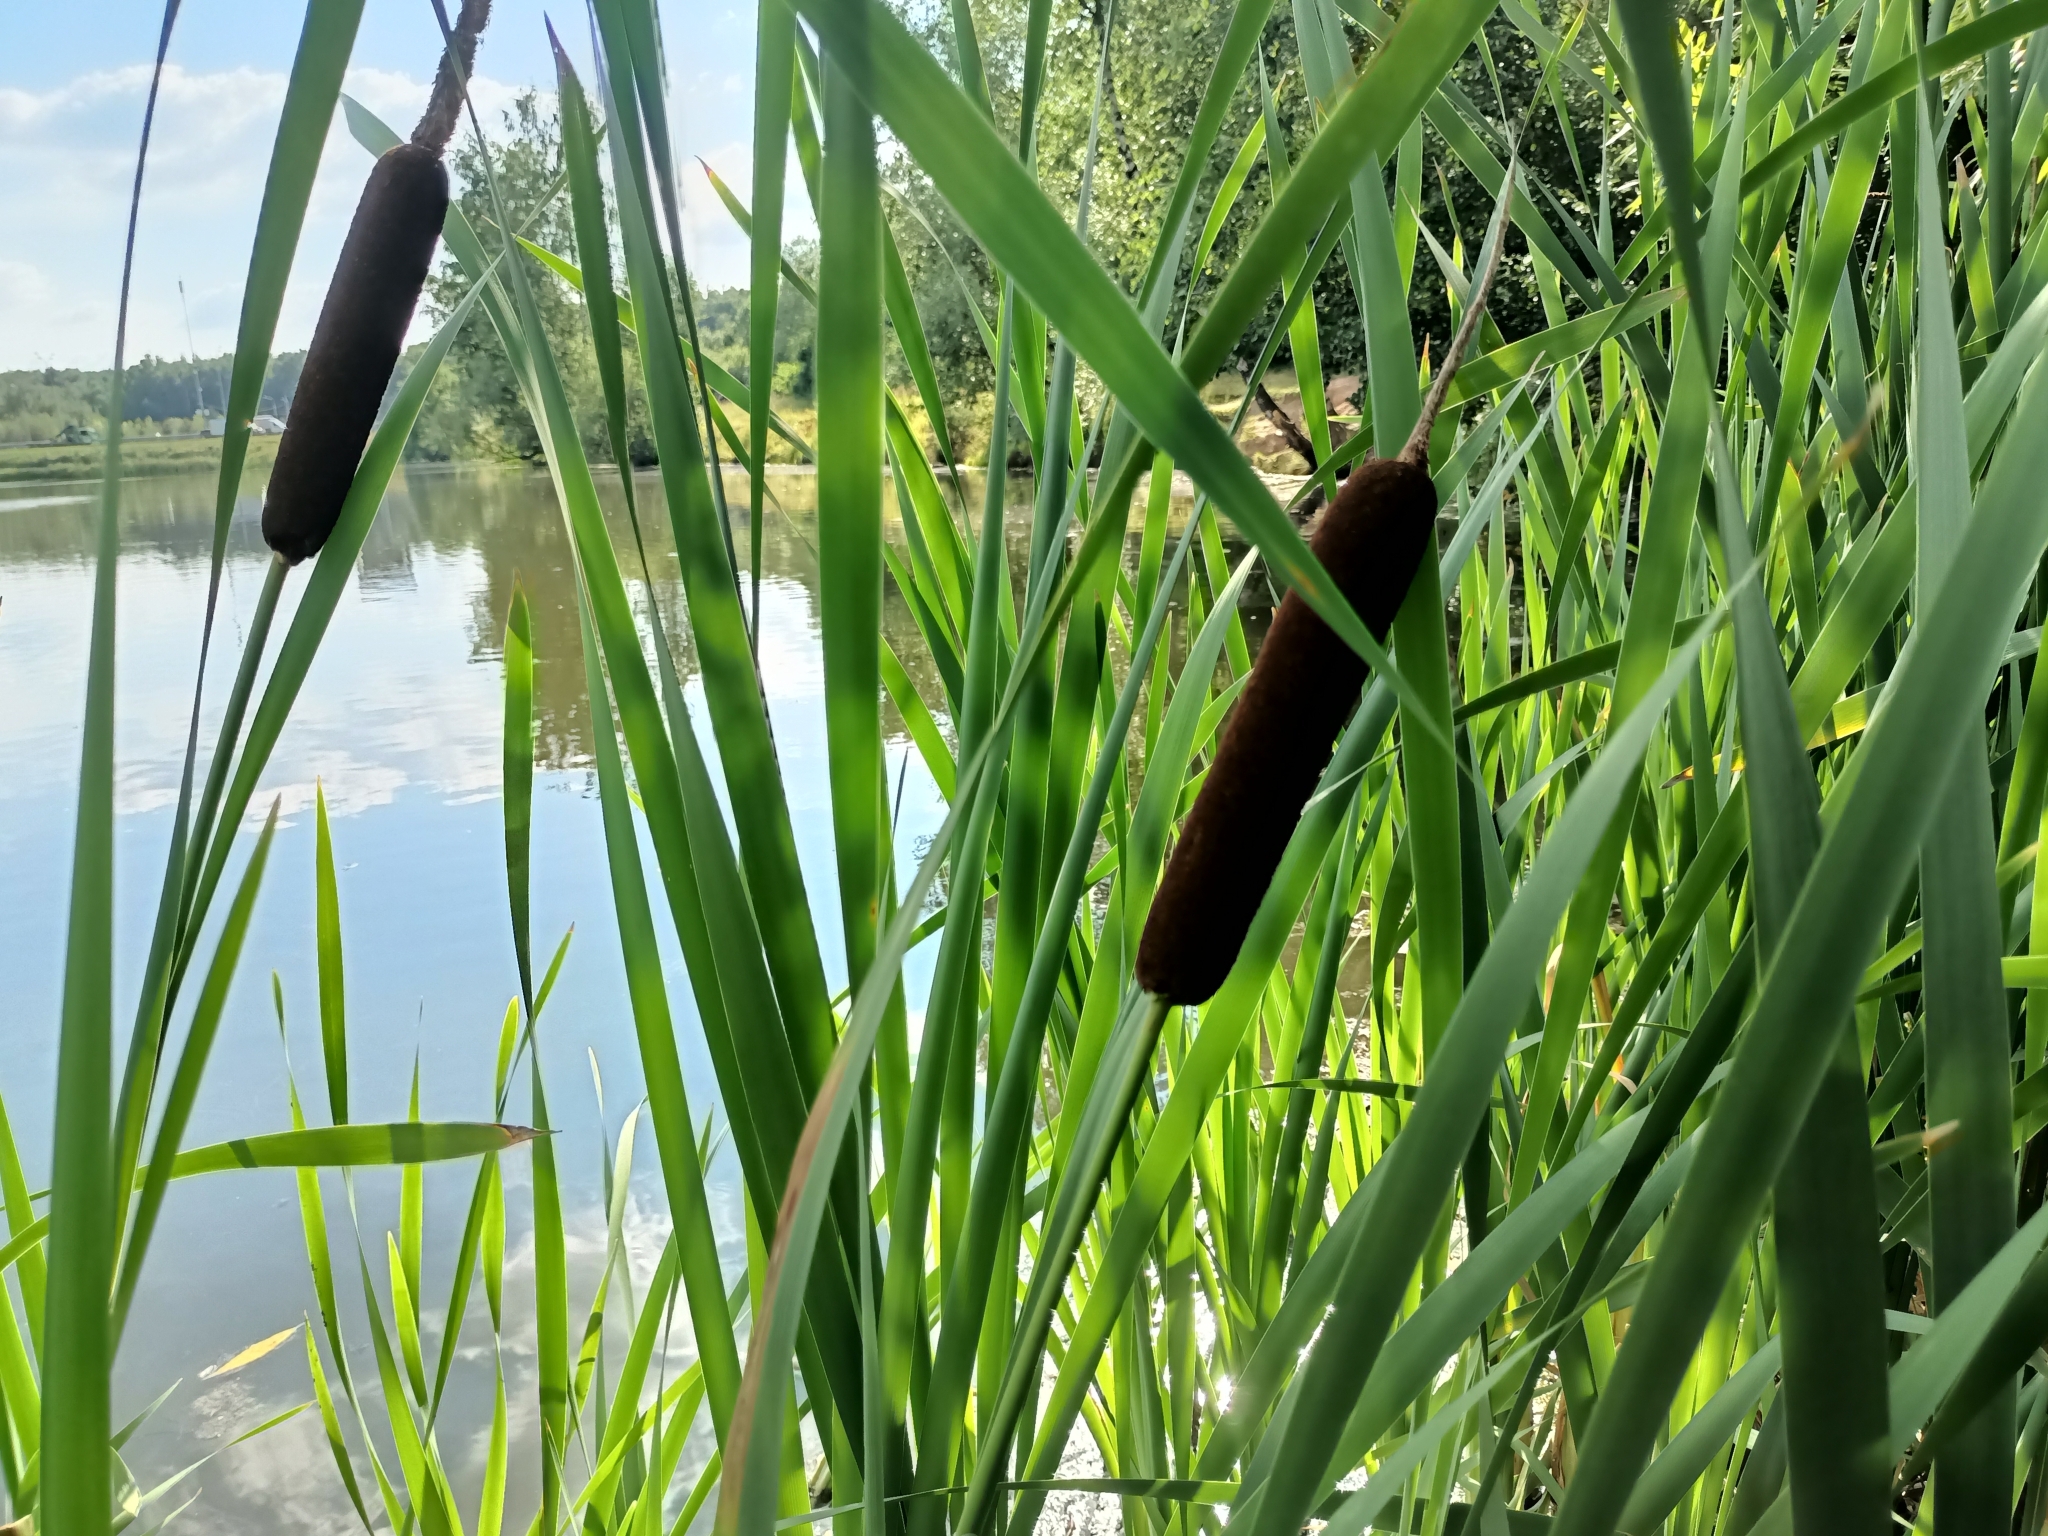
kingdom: Plantae
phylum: Tracheophyta
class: Liliopsida
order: Poales
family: Typhaceae
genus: Typha
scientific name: Typha latifolia
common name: Broadleaf cattail
